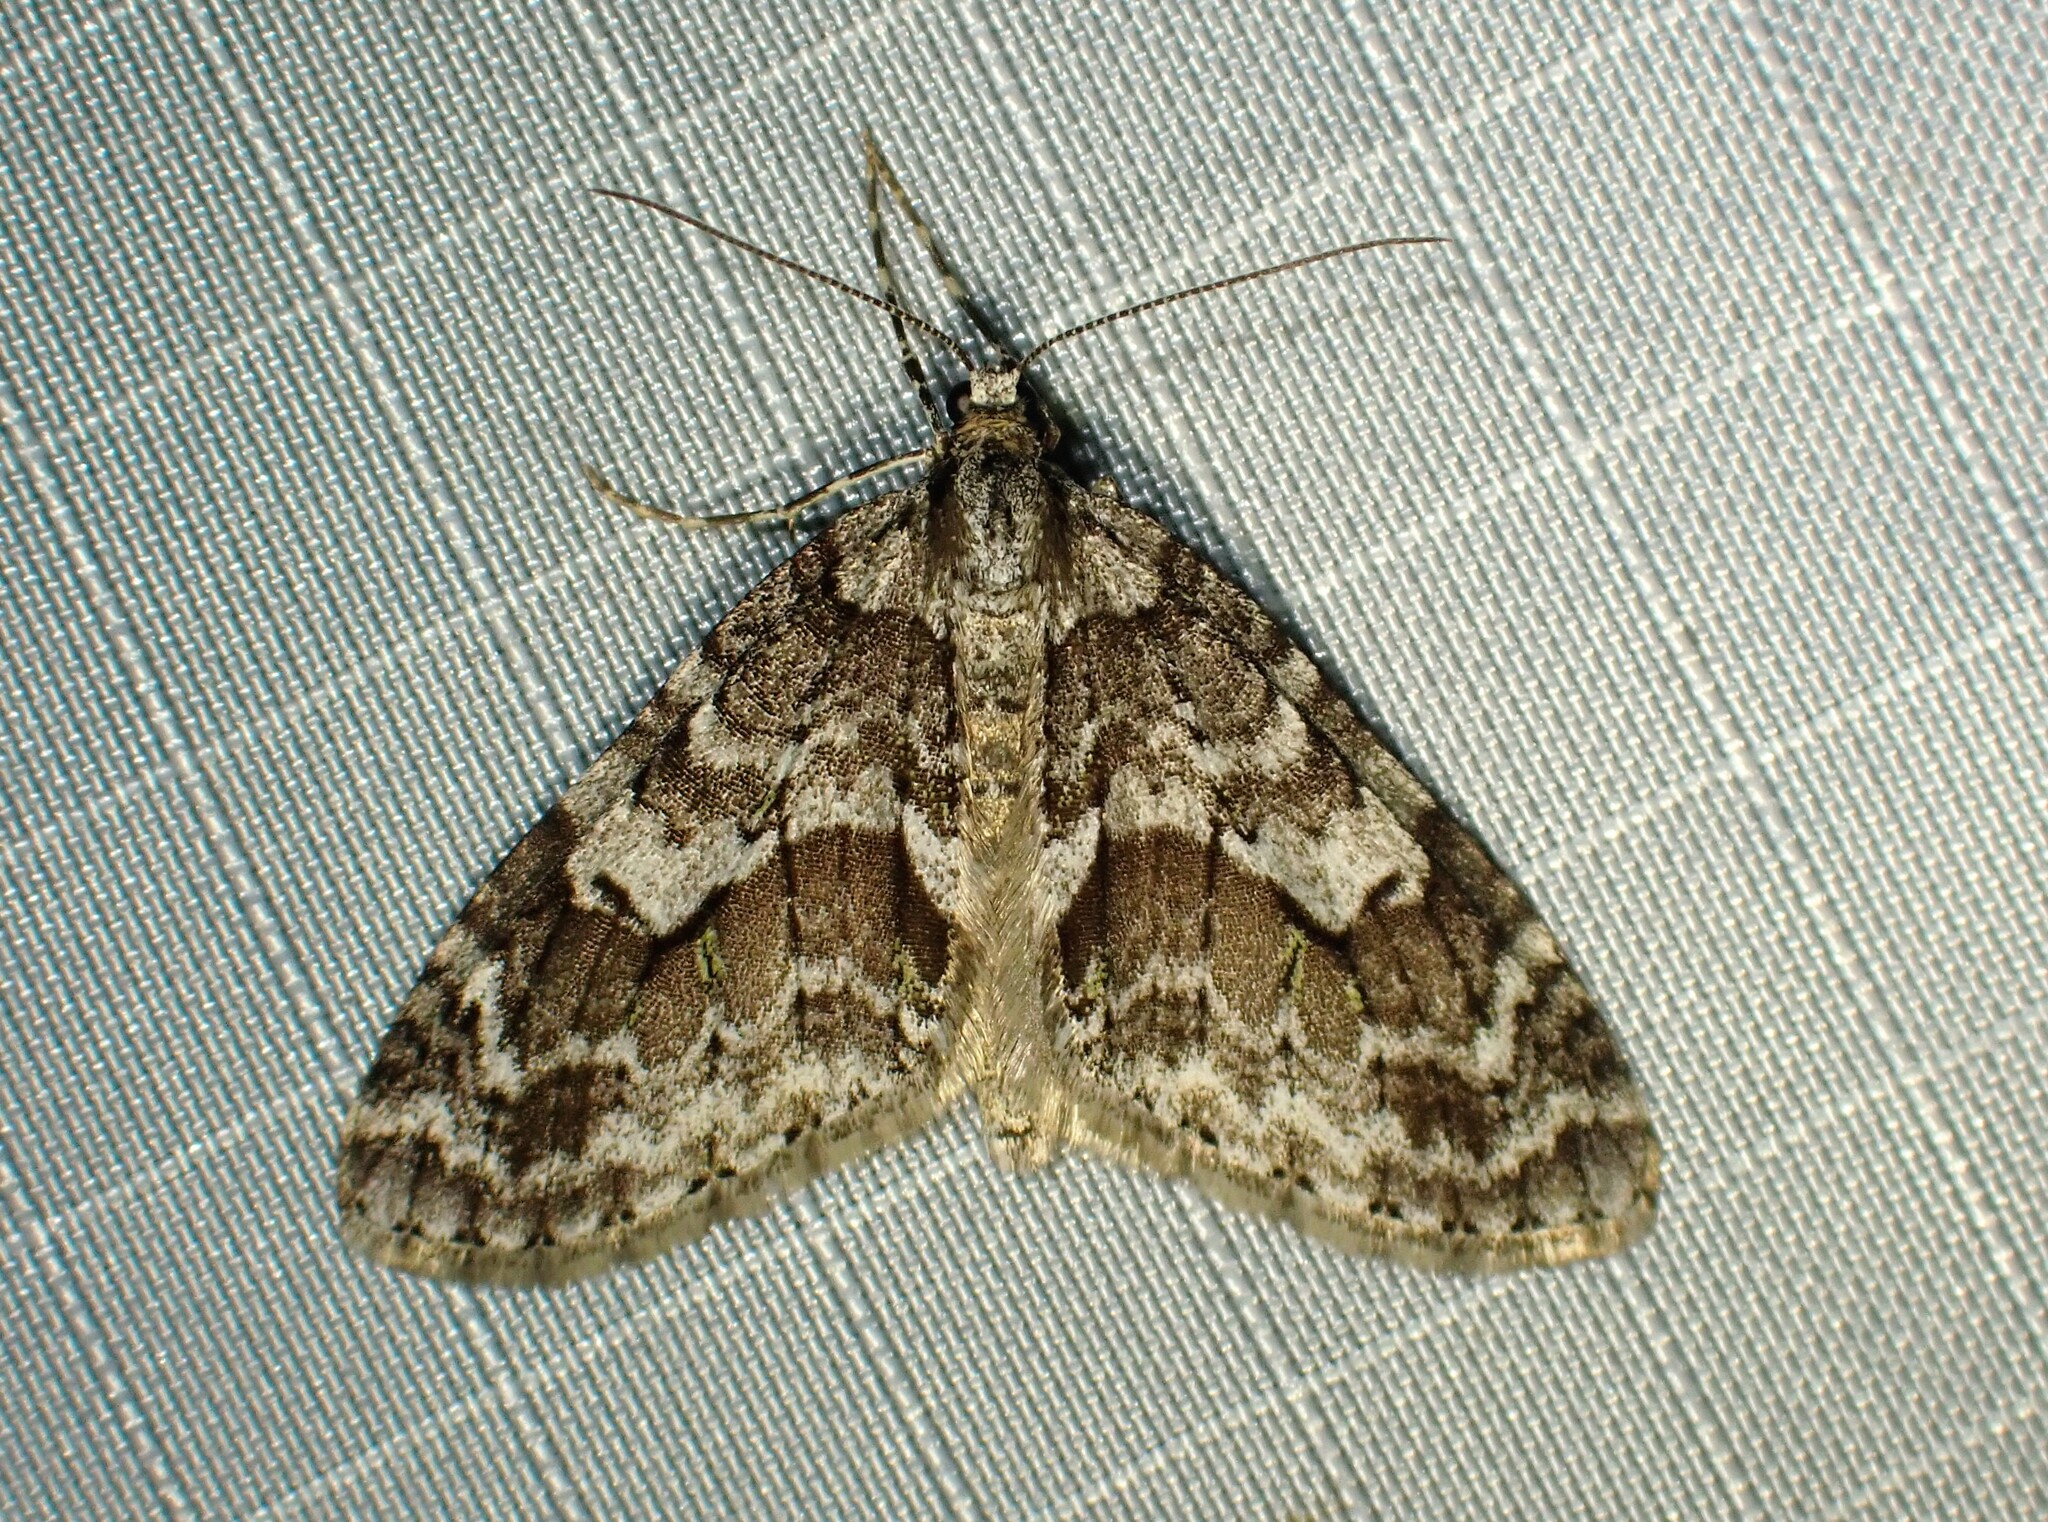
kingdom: Animalia
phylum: Arthropoda
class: Insecta
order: Lepidoptera
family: Geometridae
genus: Cladara
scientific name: Cladara limitaria
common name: Mottled gray carpet
